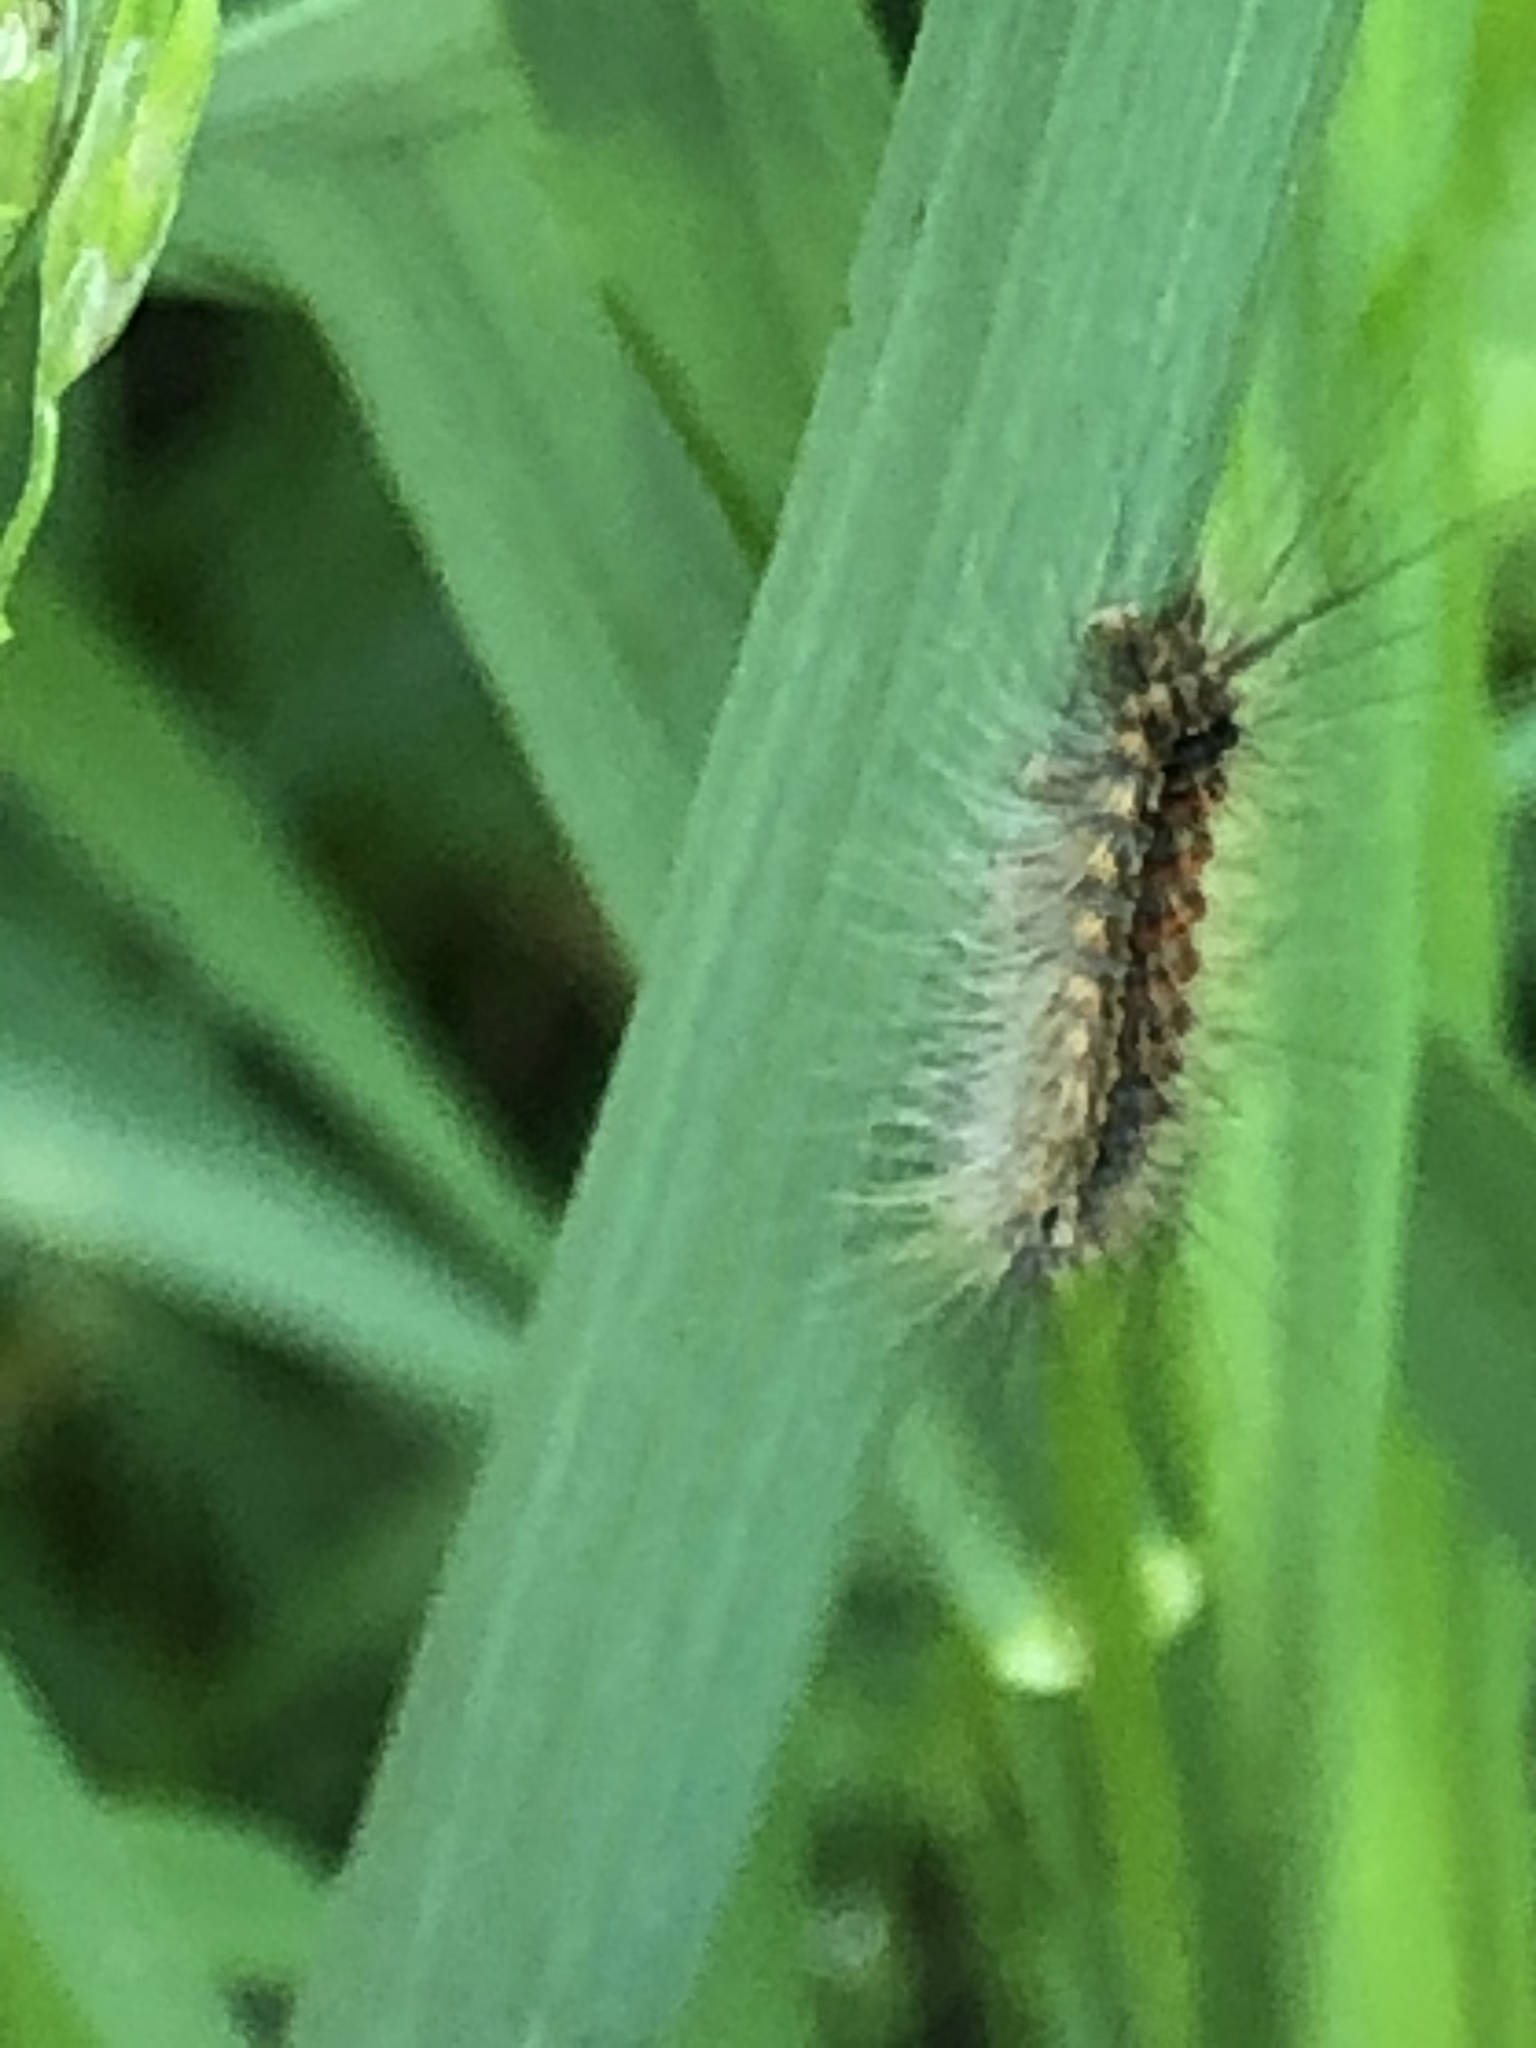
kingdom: Animalia
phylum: Arthropoda
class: Insecta
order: Lepidoptera
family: Erebidae
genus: Lymantria
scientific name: Lymantria dispar
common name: Gypsy moth
